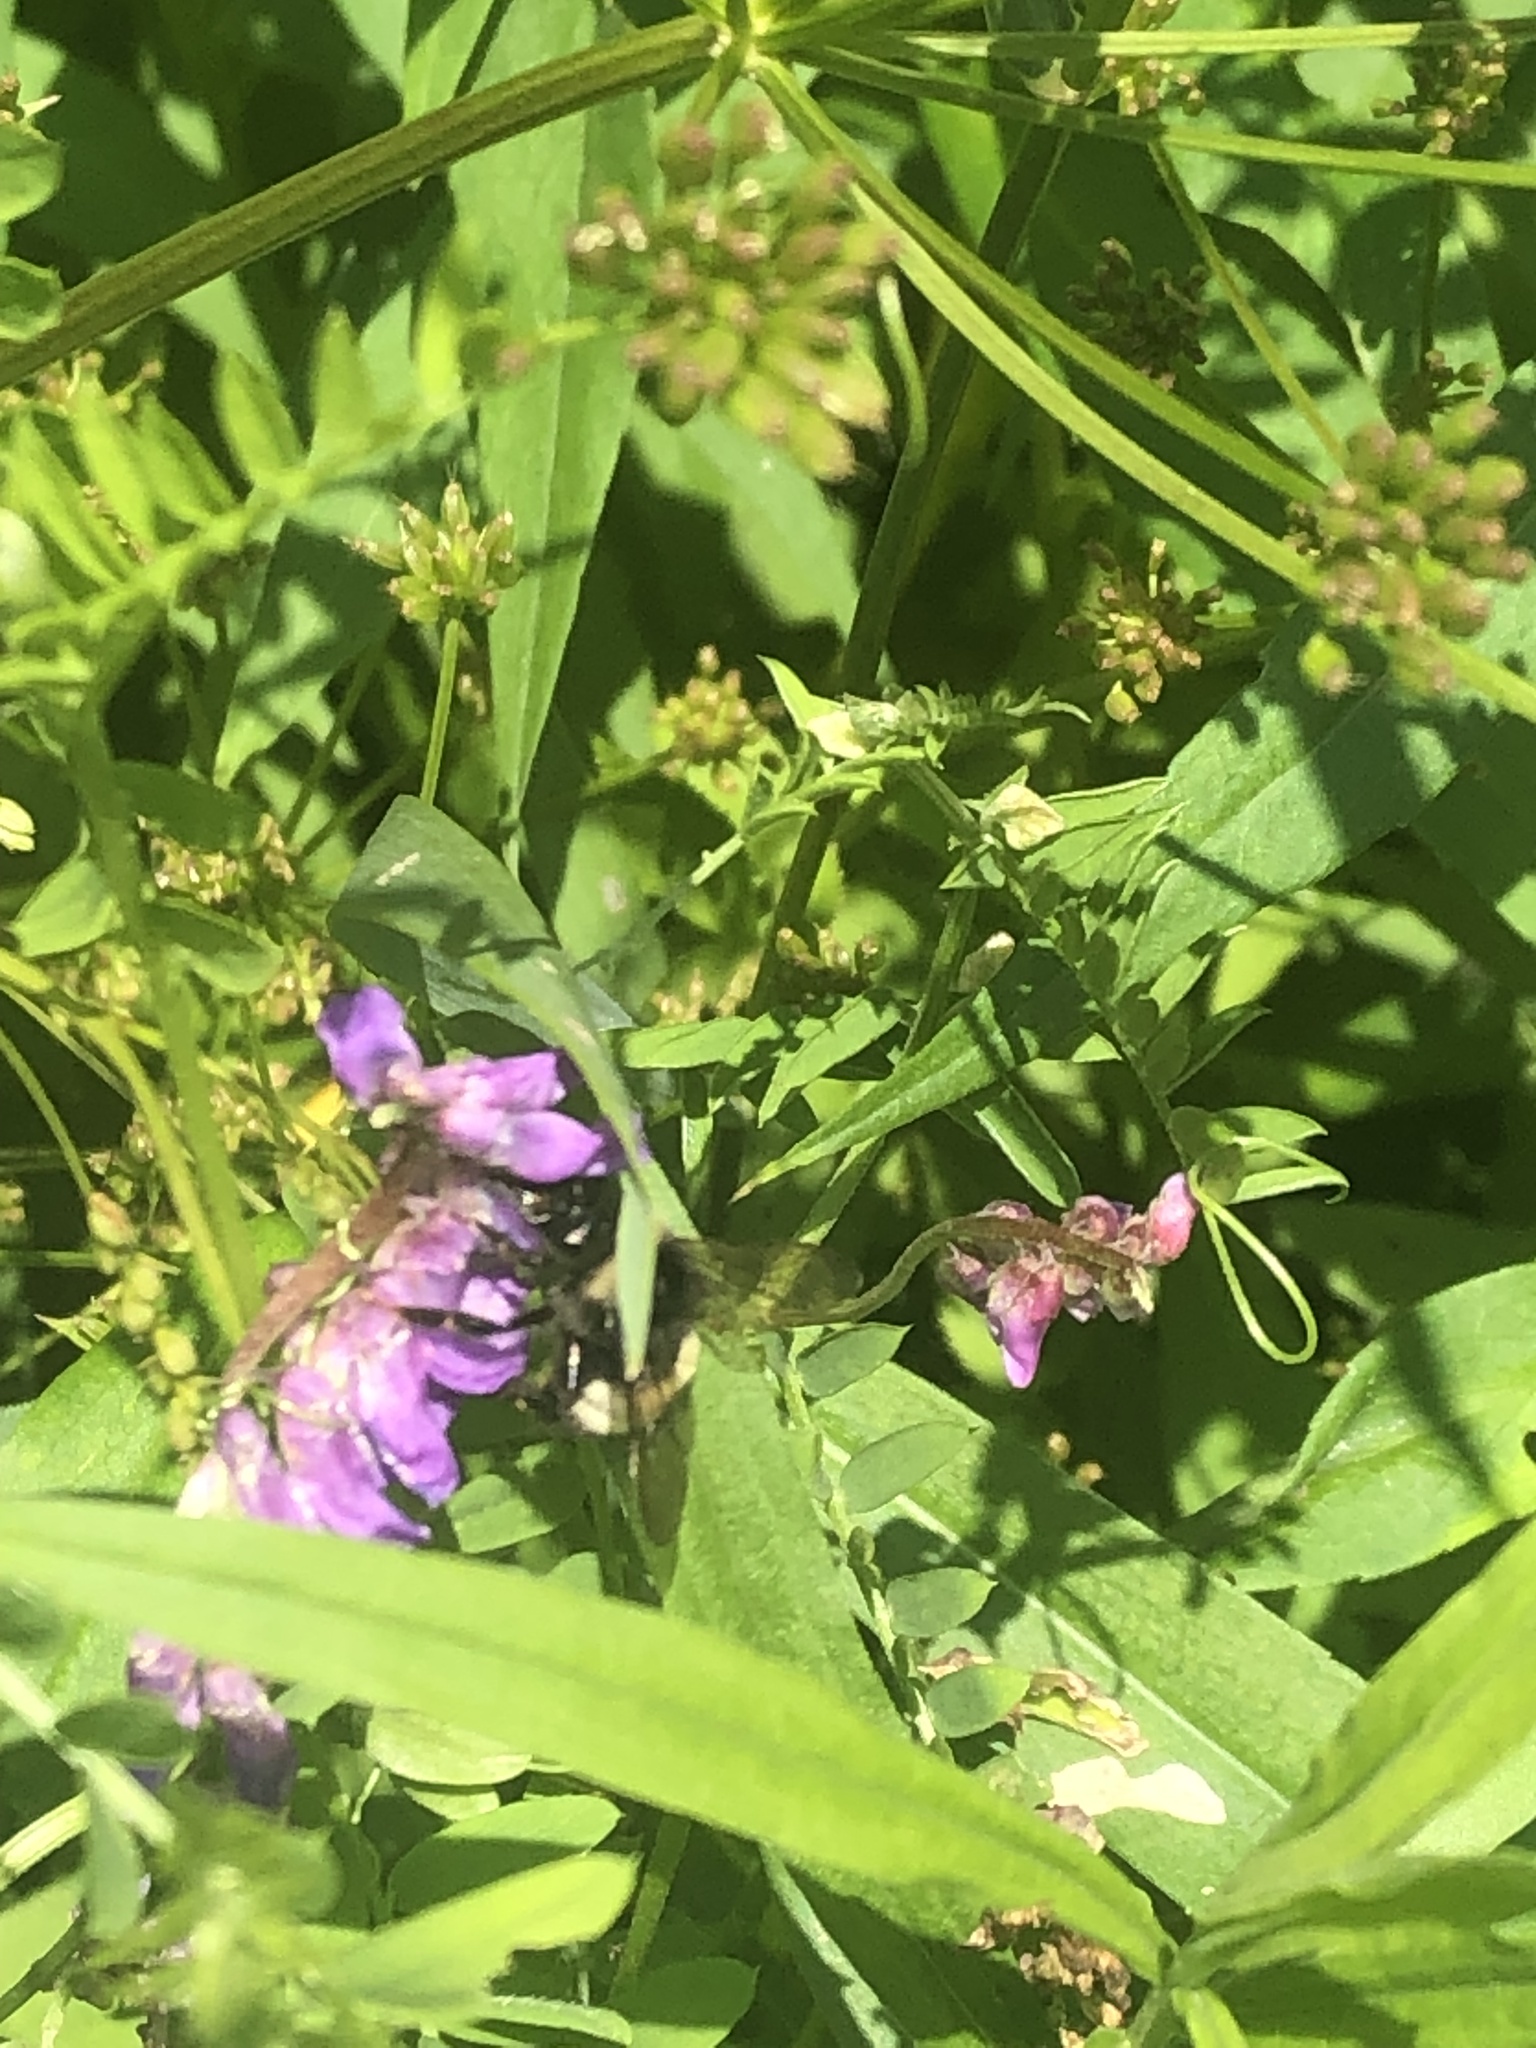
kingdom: Animalia
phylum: Arthropoda
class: Insecta
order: Hymenoptera
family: Apidae
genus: Bombus
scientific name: Bombus terricola
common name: Yellow-banded bumble bee
